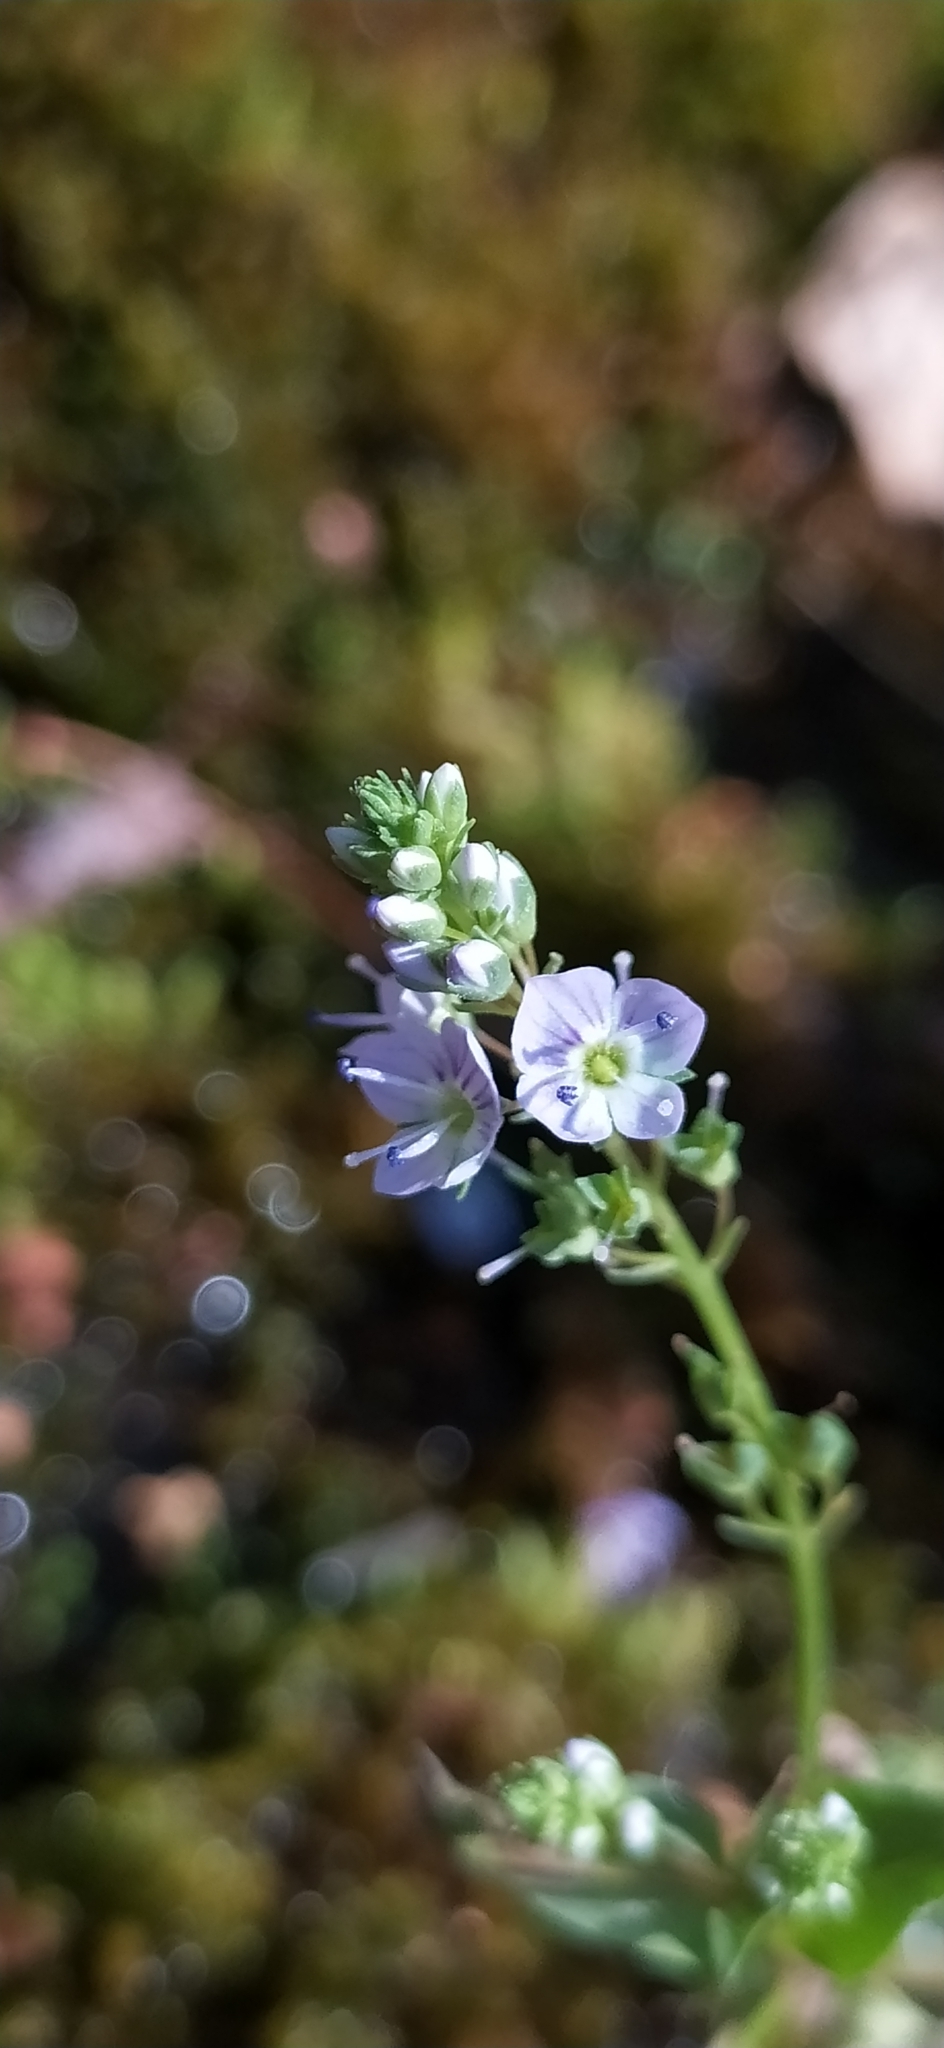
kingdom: Plantae
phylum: Tracheophyta
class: Magnoliopsida
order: Lamiales
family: Plantaginaceae
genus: Veronica
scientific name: Veronica beccabunga
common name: Brooklime
